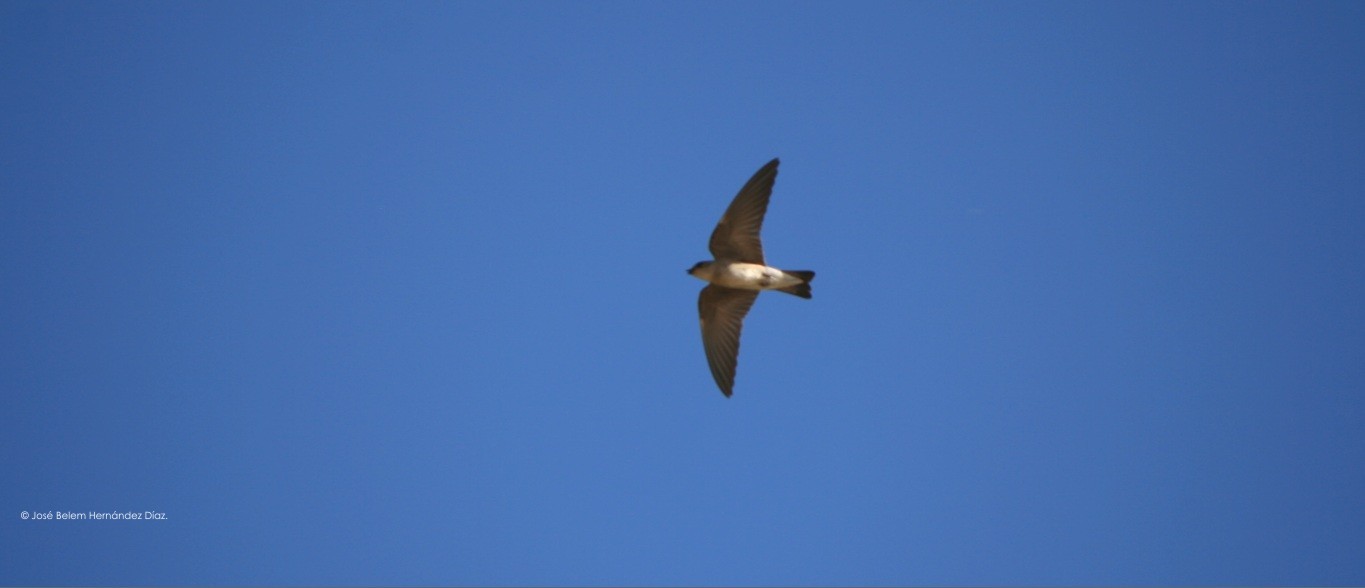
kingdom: Animalia
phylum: Chordata
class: Aves
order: Passeriformes
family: Hirundinidae
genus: Stelgidopteryx
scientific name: Stelgidopteryx serripennis
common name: Northern rough-winged swallow
